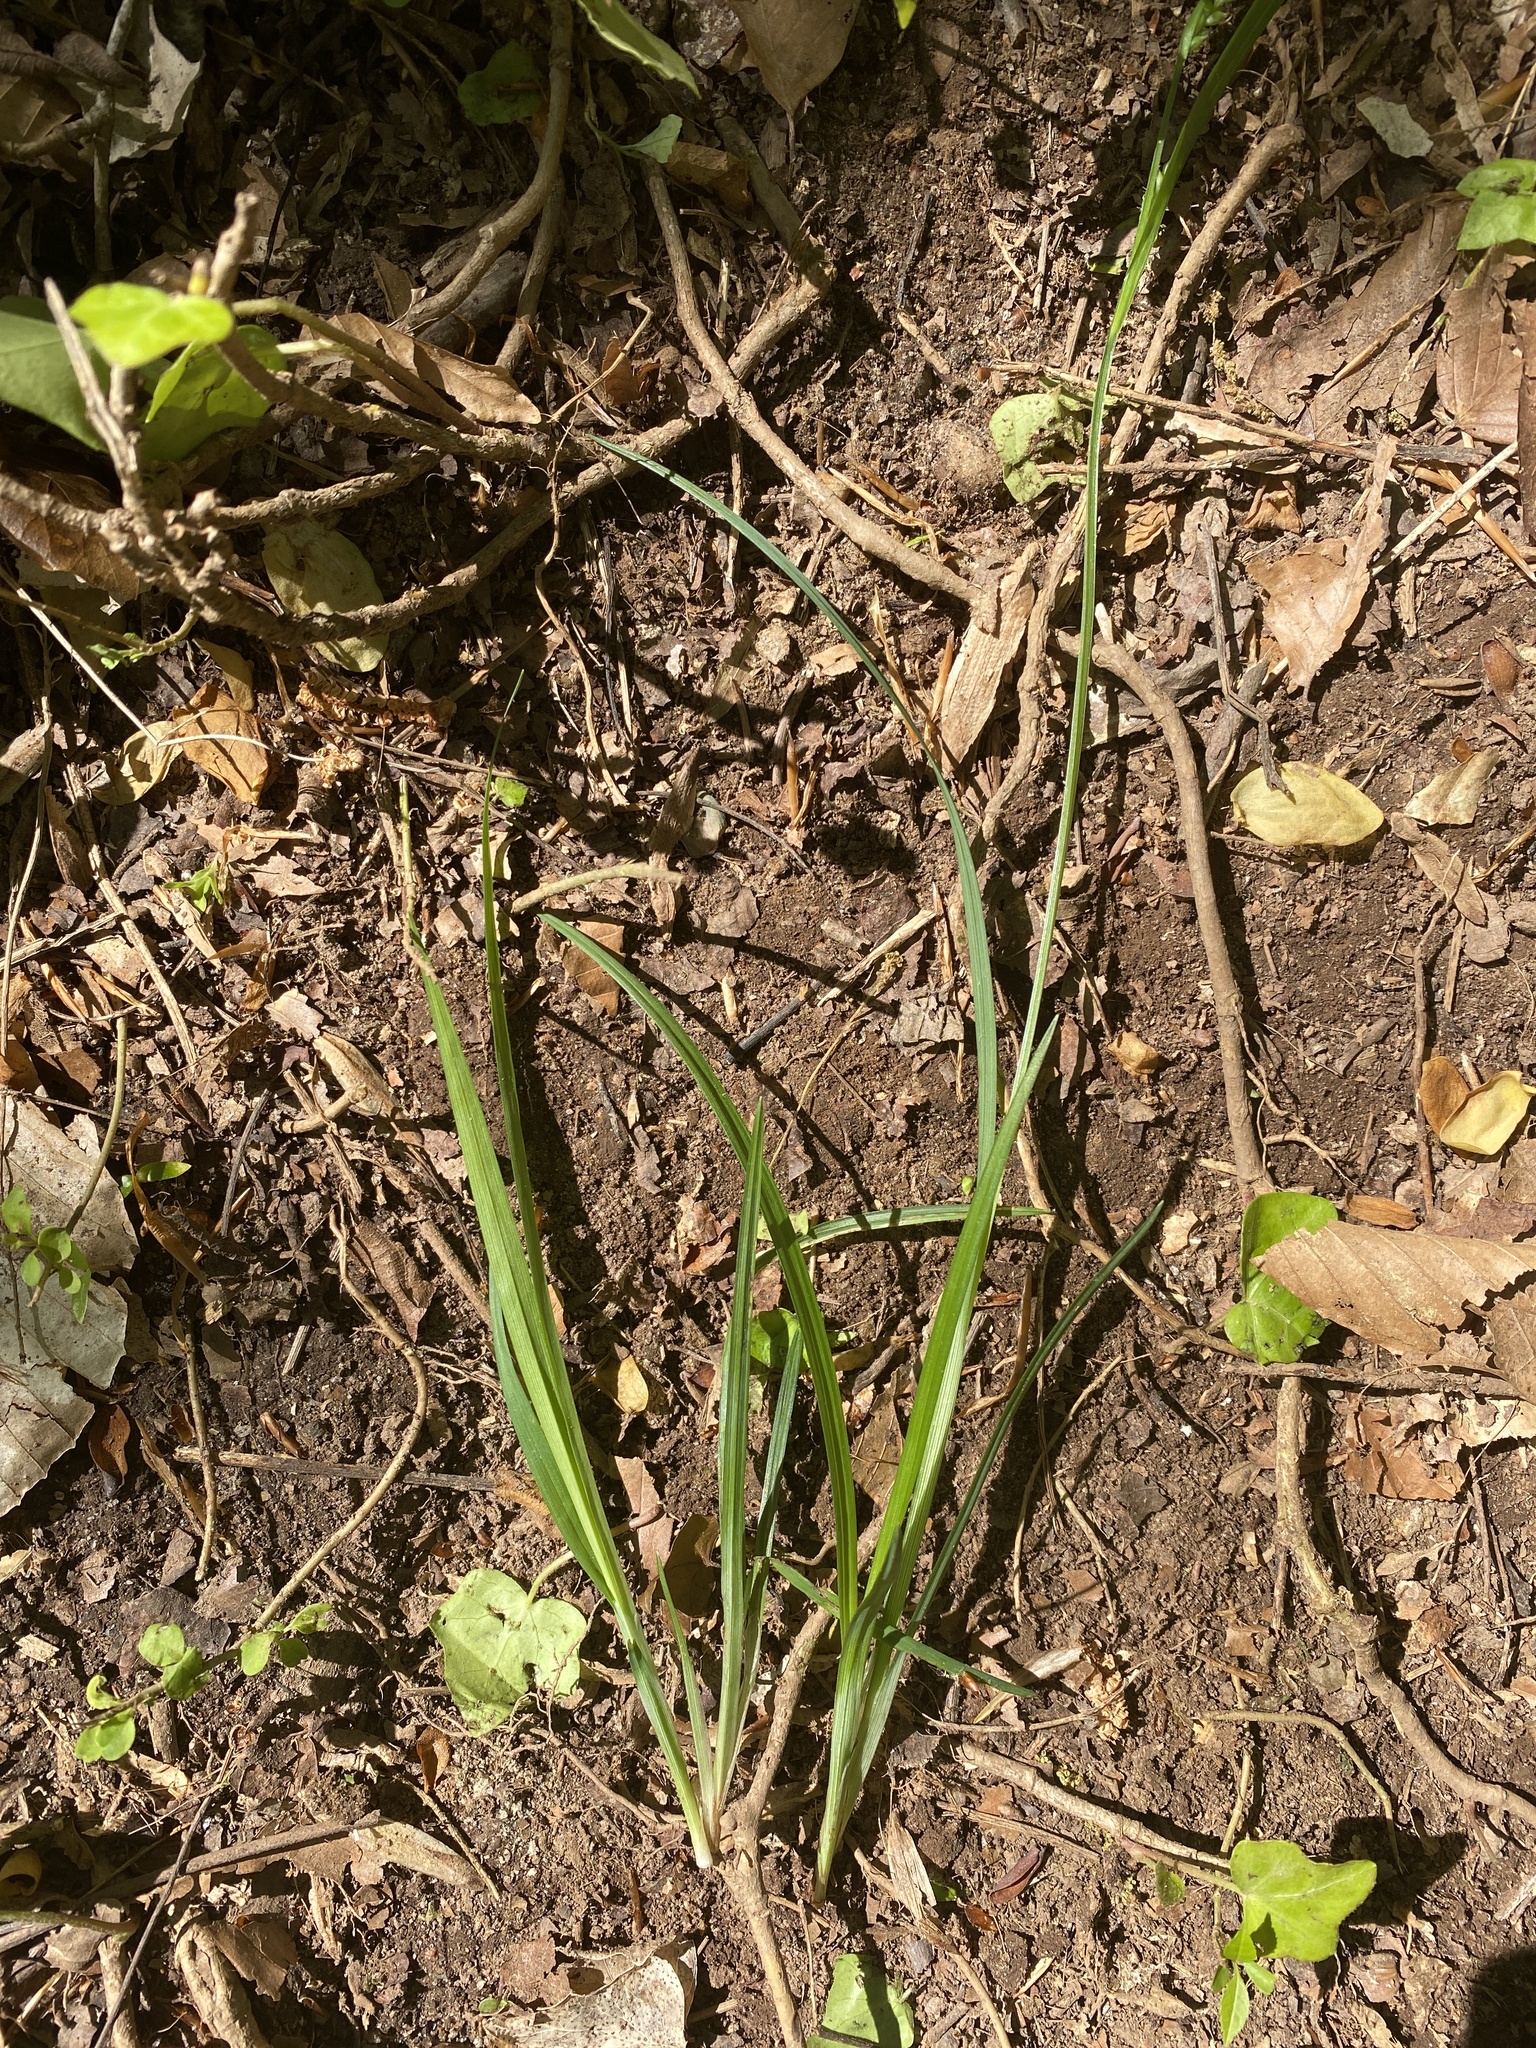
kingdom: Plantae
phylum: Tracheophyta
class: Liliopsida
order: Poales
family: Cyperaceae
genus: Carex
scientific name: Carex blanda
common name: Bland sedge
